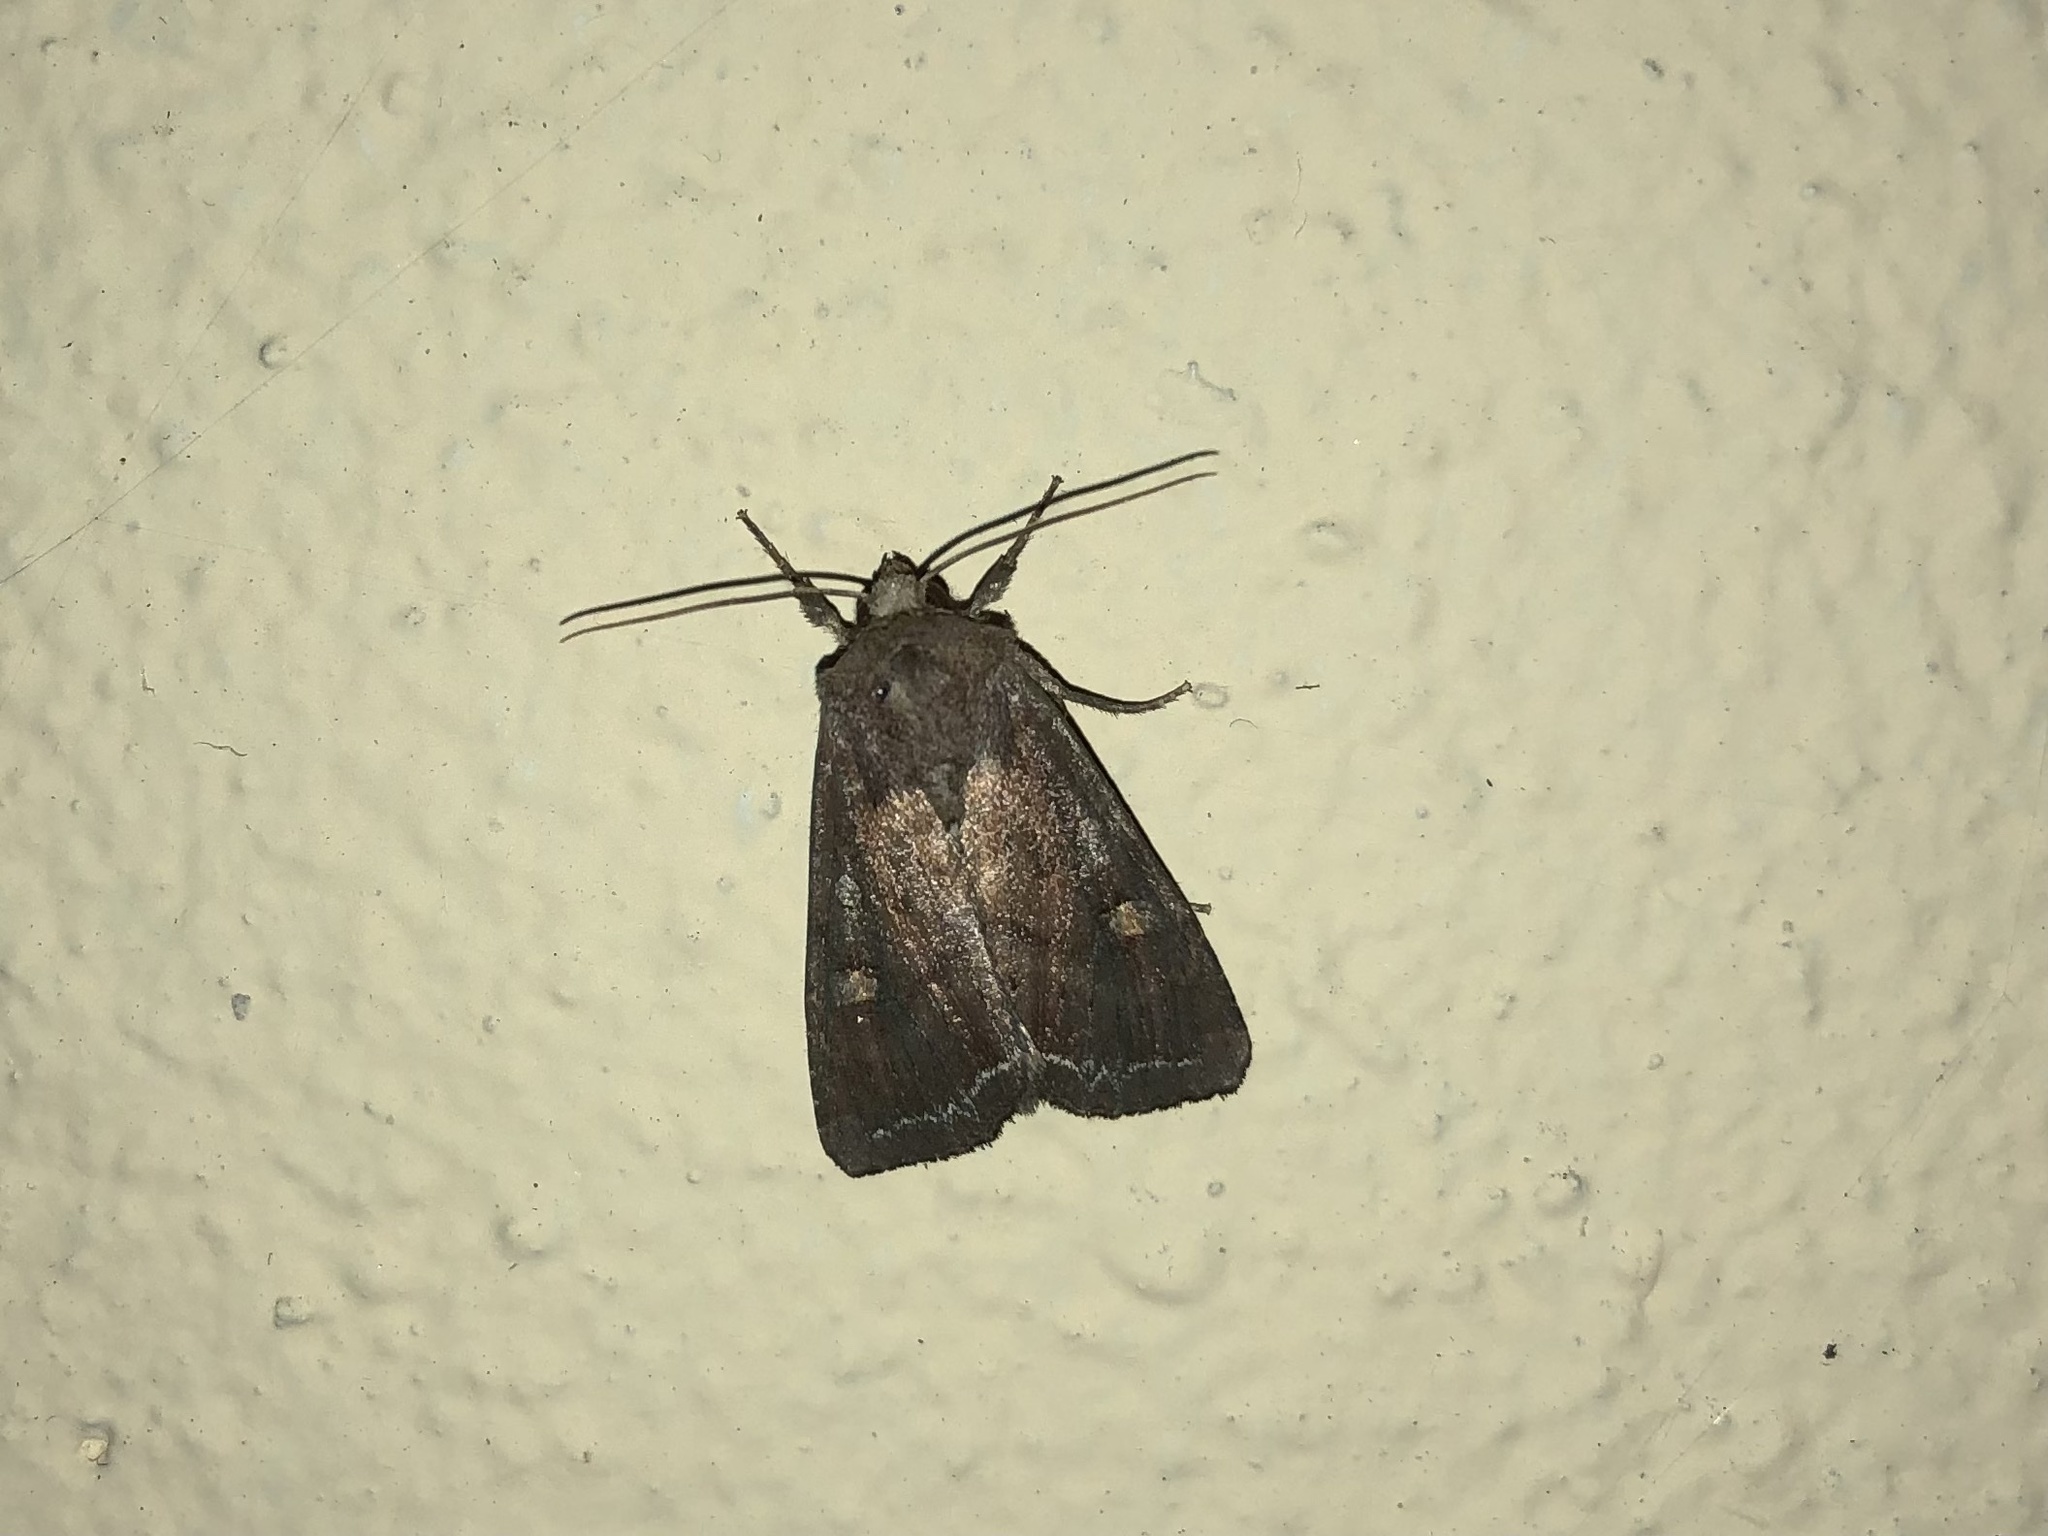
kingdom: Animalia
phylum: Arthropoda
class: Insecta
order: Lepidoptera
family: Noctuidae
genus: Lacanobia
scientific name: Lacanobia oleracea
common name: Bright-line brown-eye
